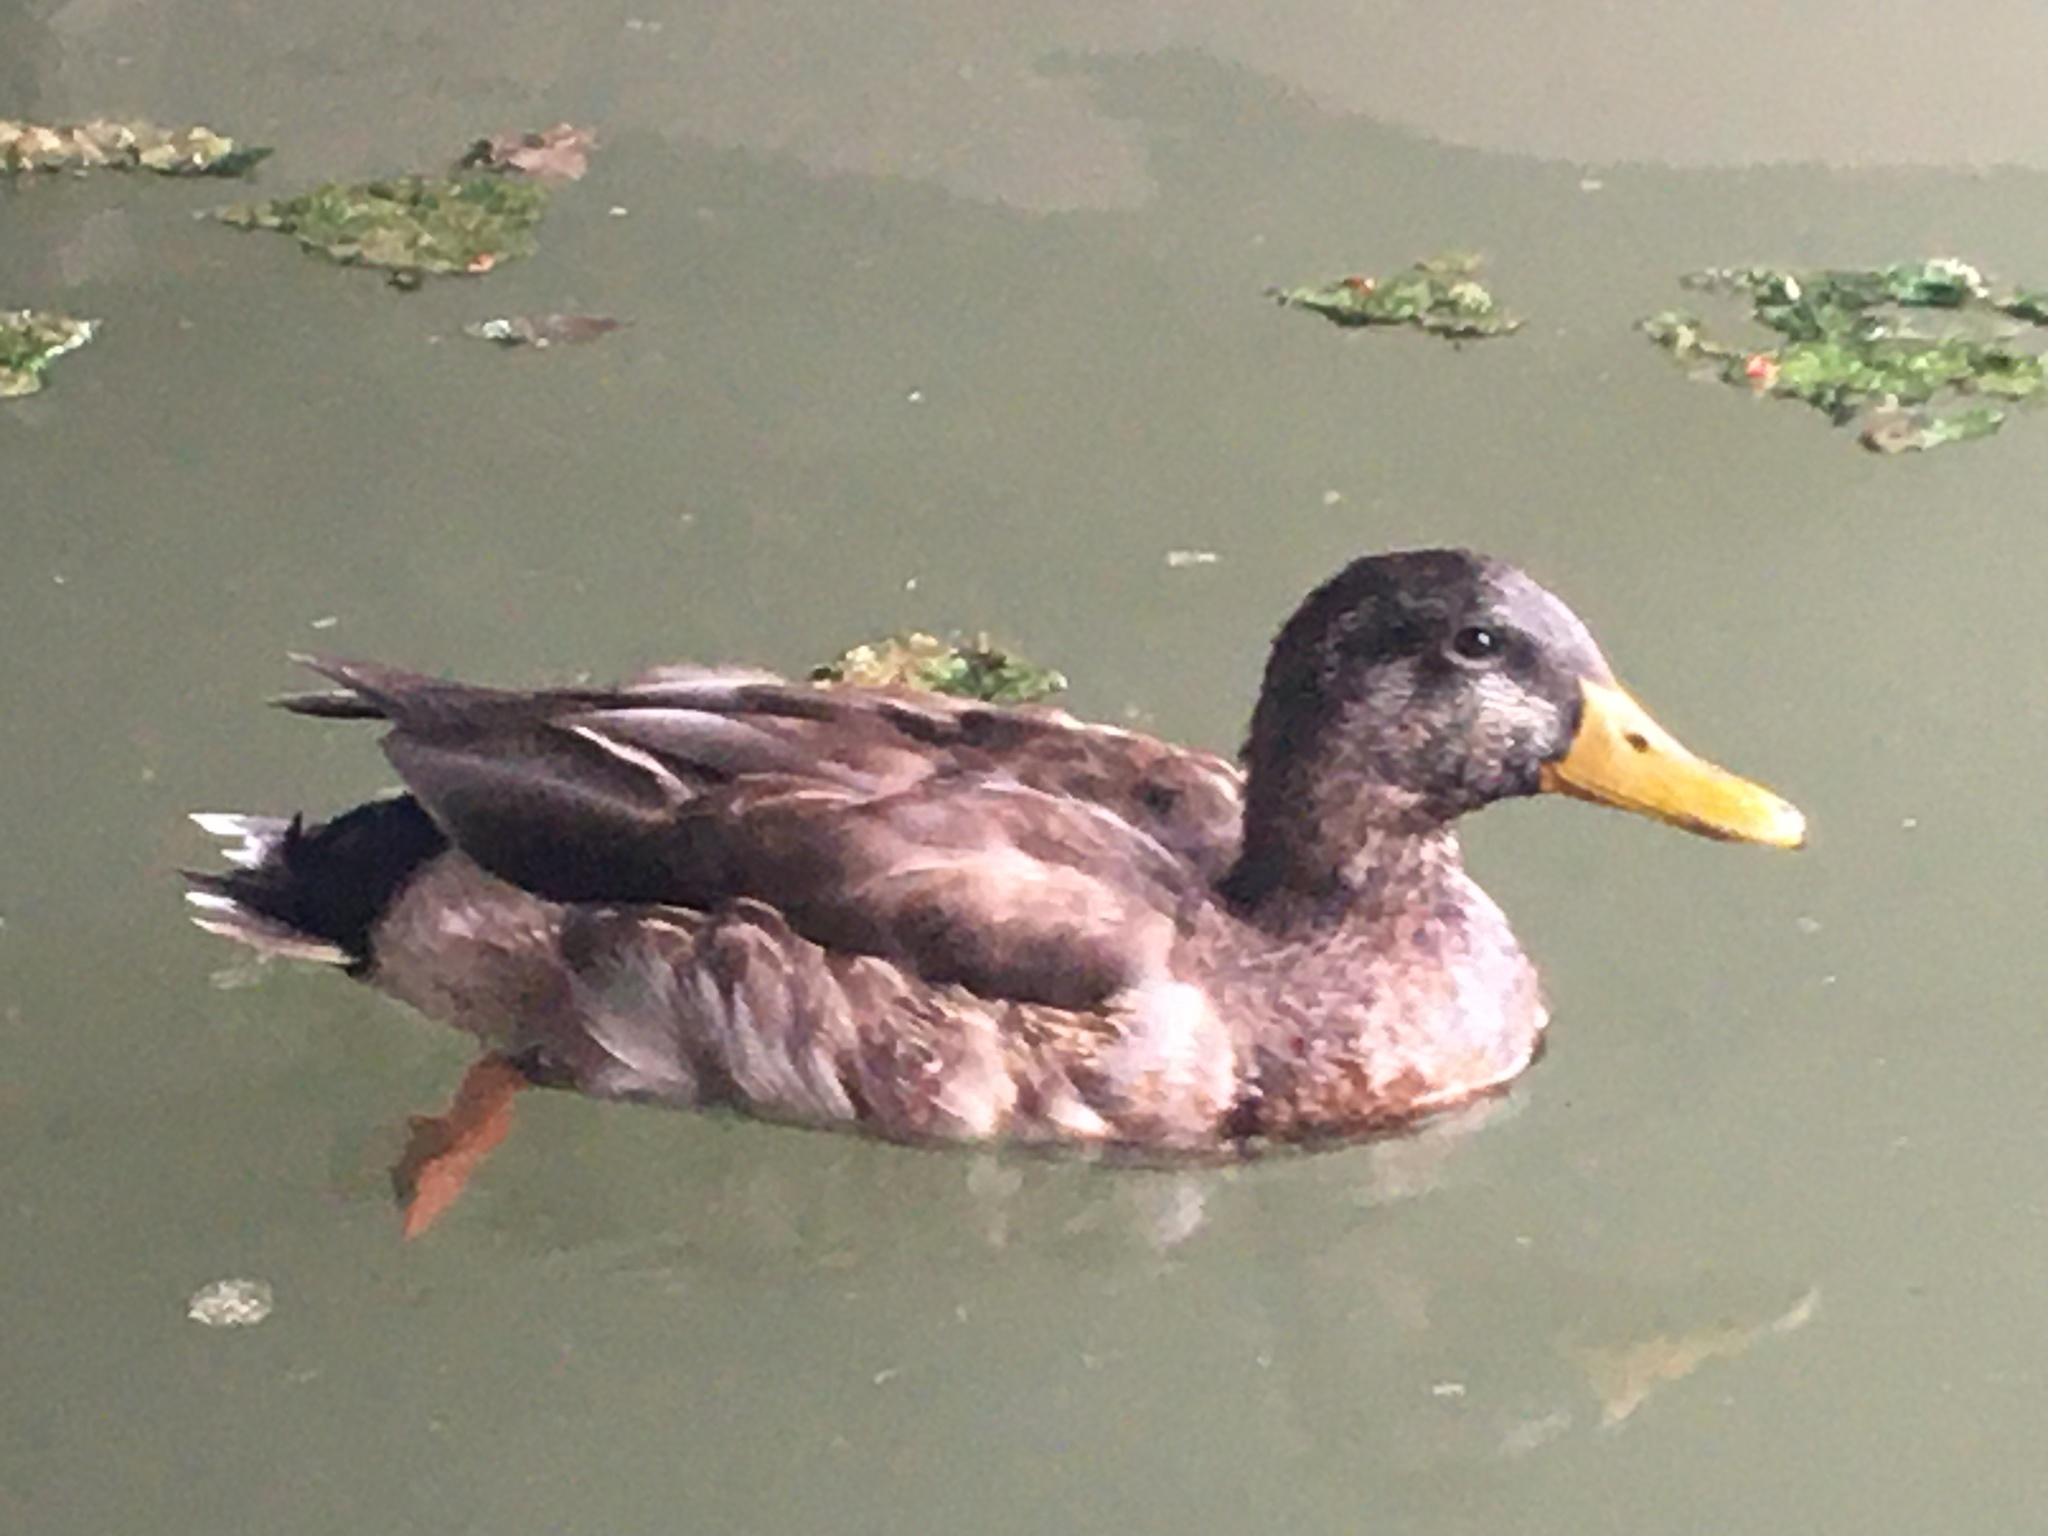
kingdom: Animalia
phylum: Chordata
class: Aves
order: Anseriformes
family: Anatidae
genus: Anas
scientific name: Anas platyrhynchos
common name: Mallard
